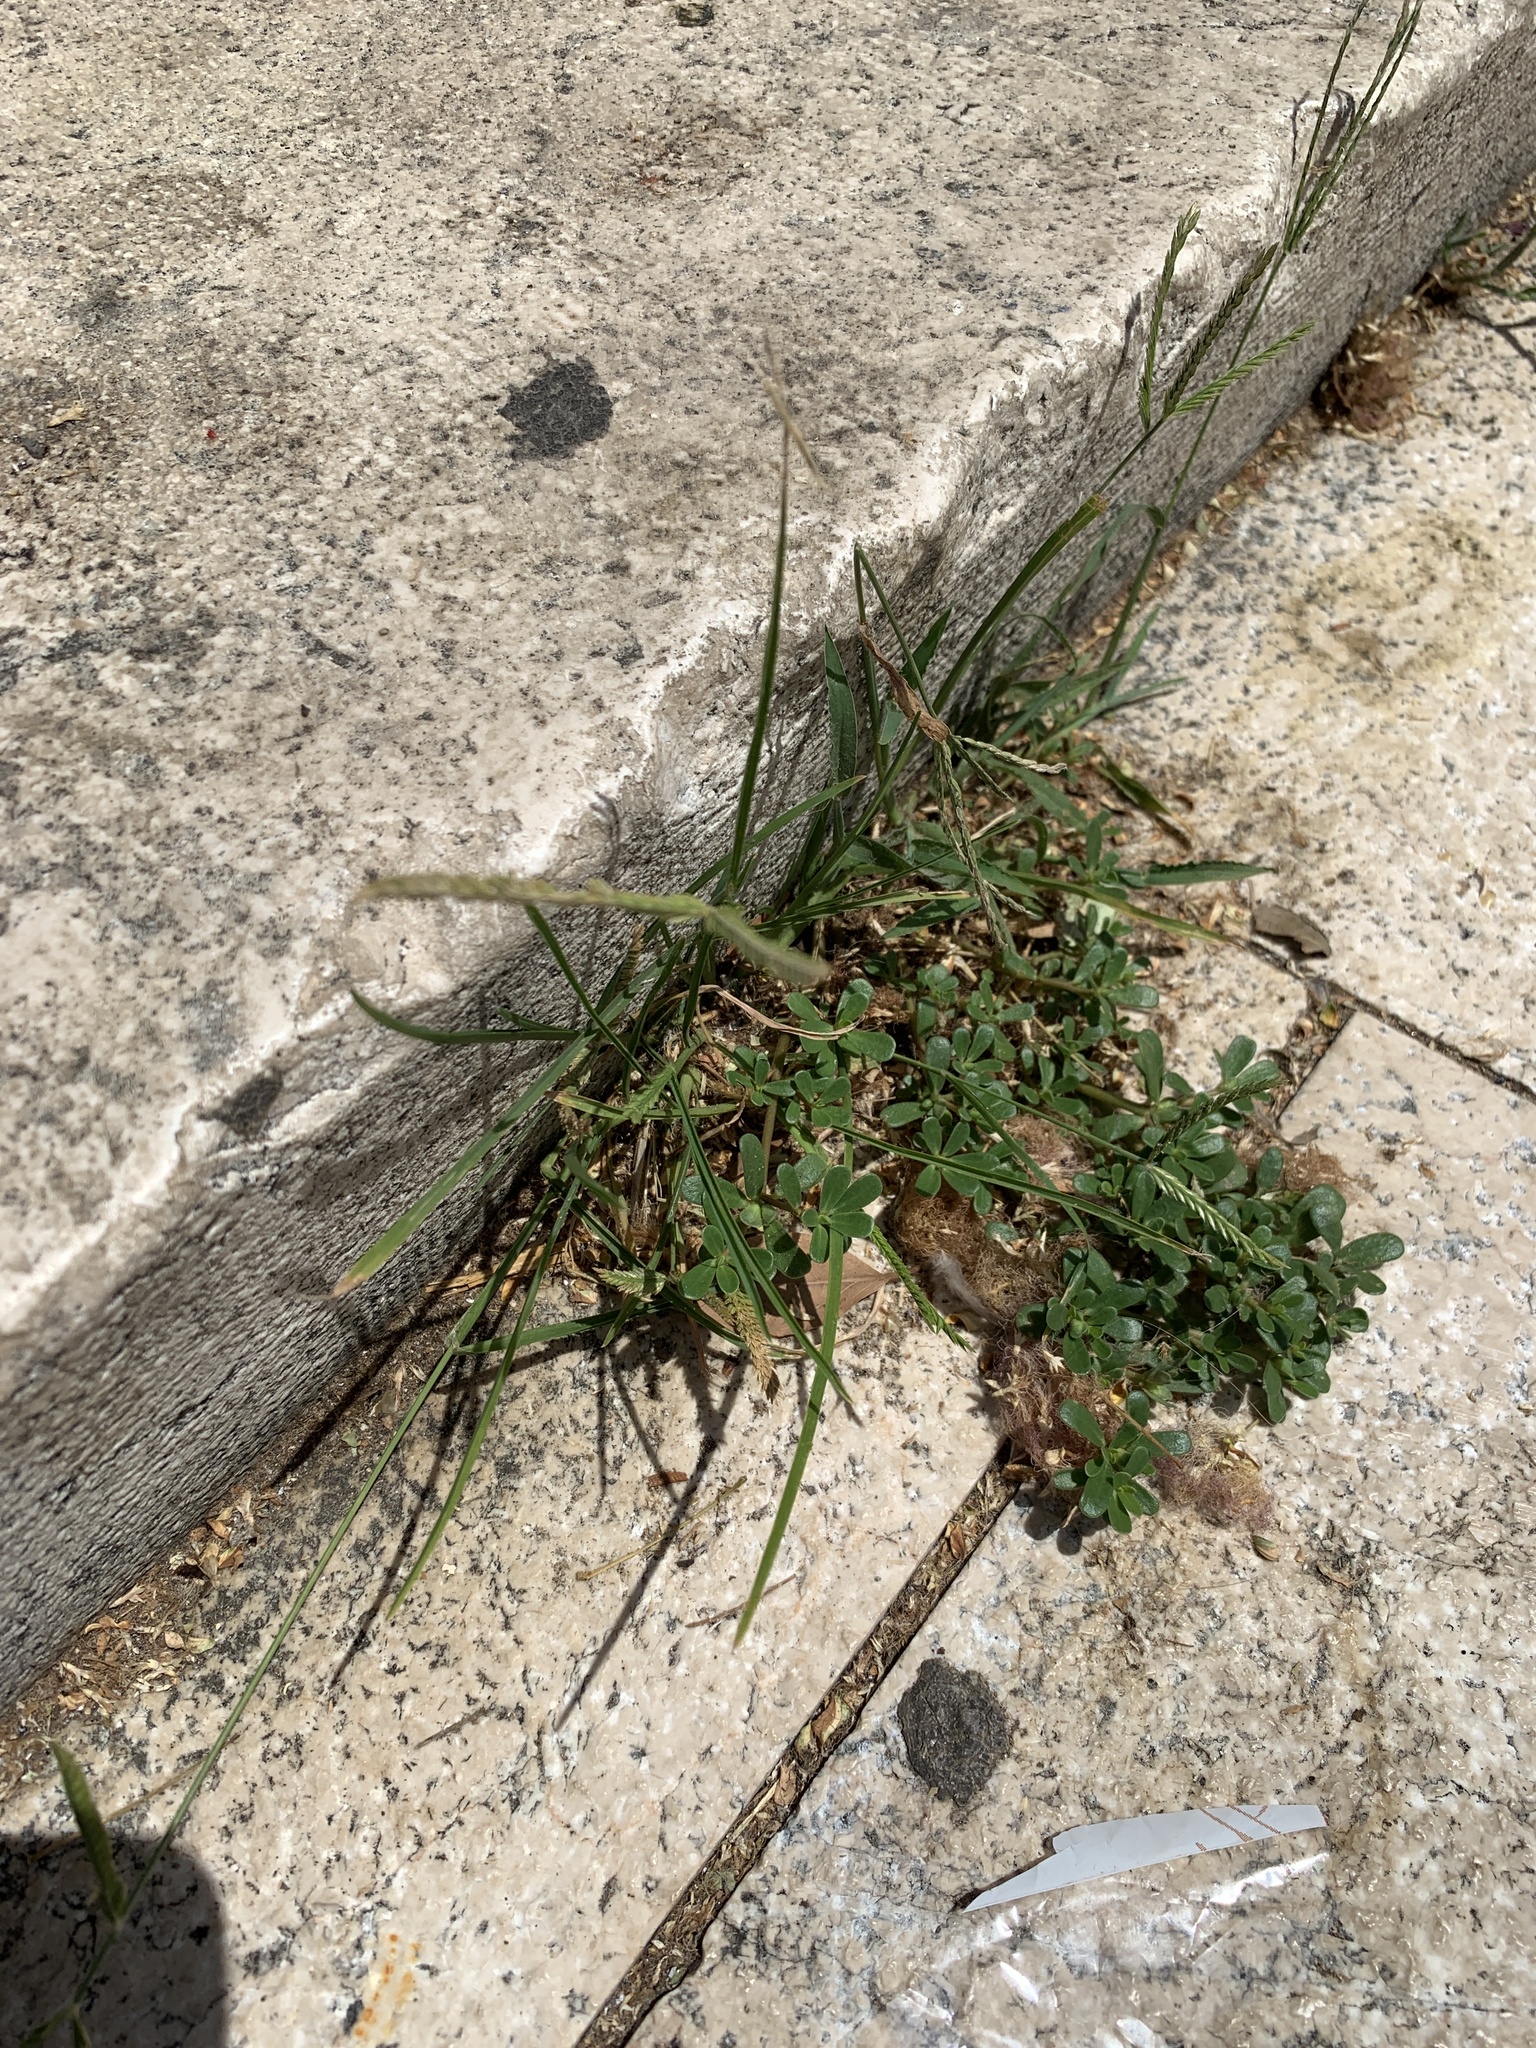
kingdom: Plantae
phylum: Tracheophyta
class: Liliopsida
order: Poales
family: Poaceae
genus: Eleusine
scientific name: Eleusine indica
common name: Yard-grass
